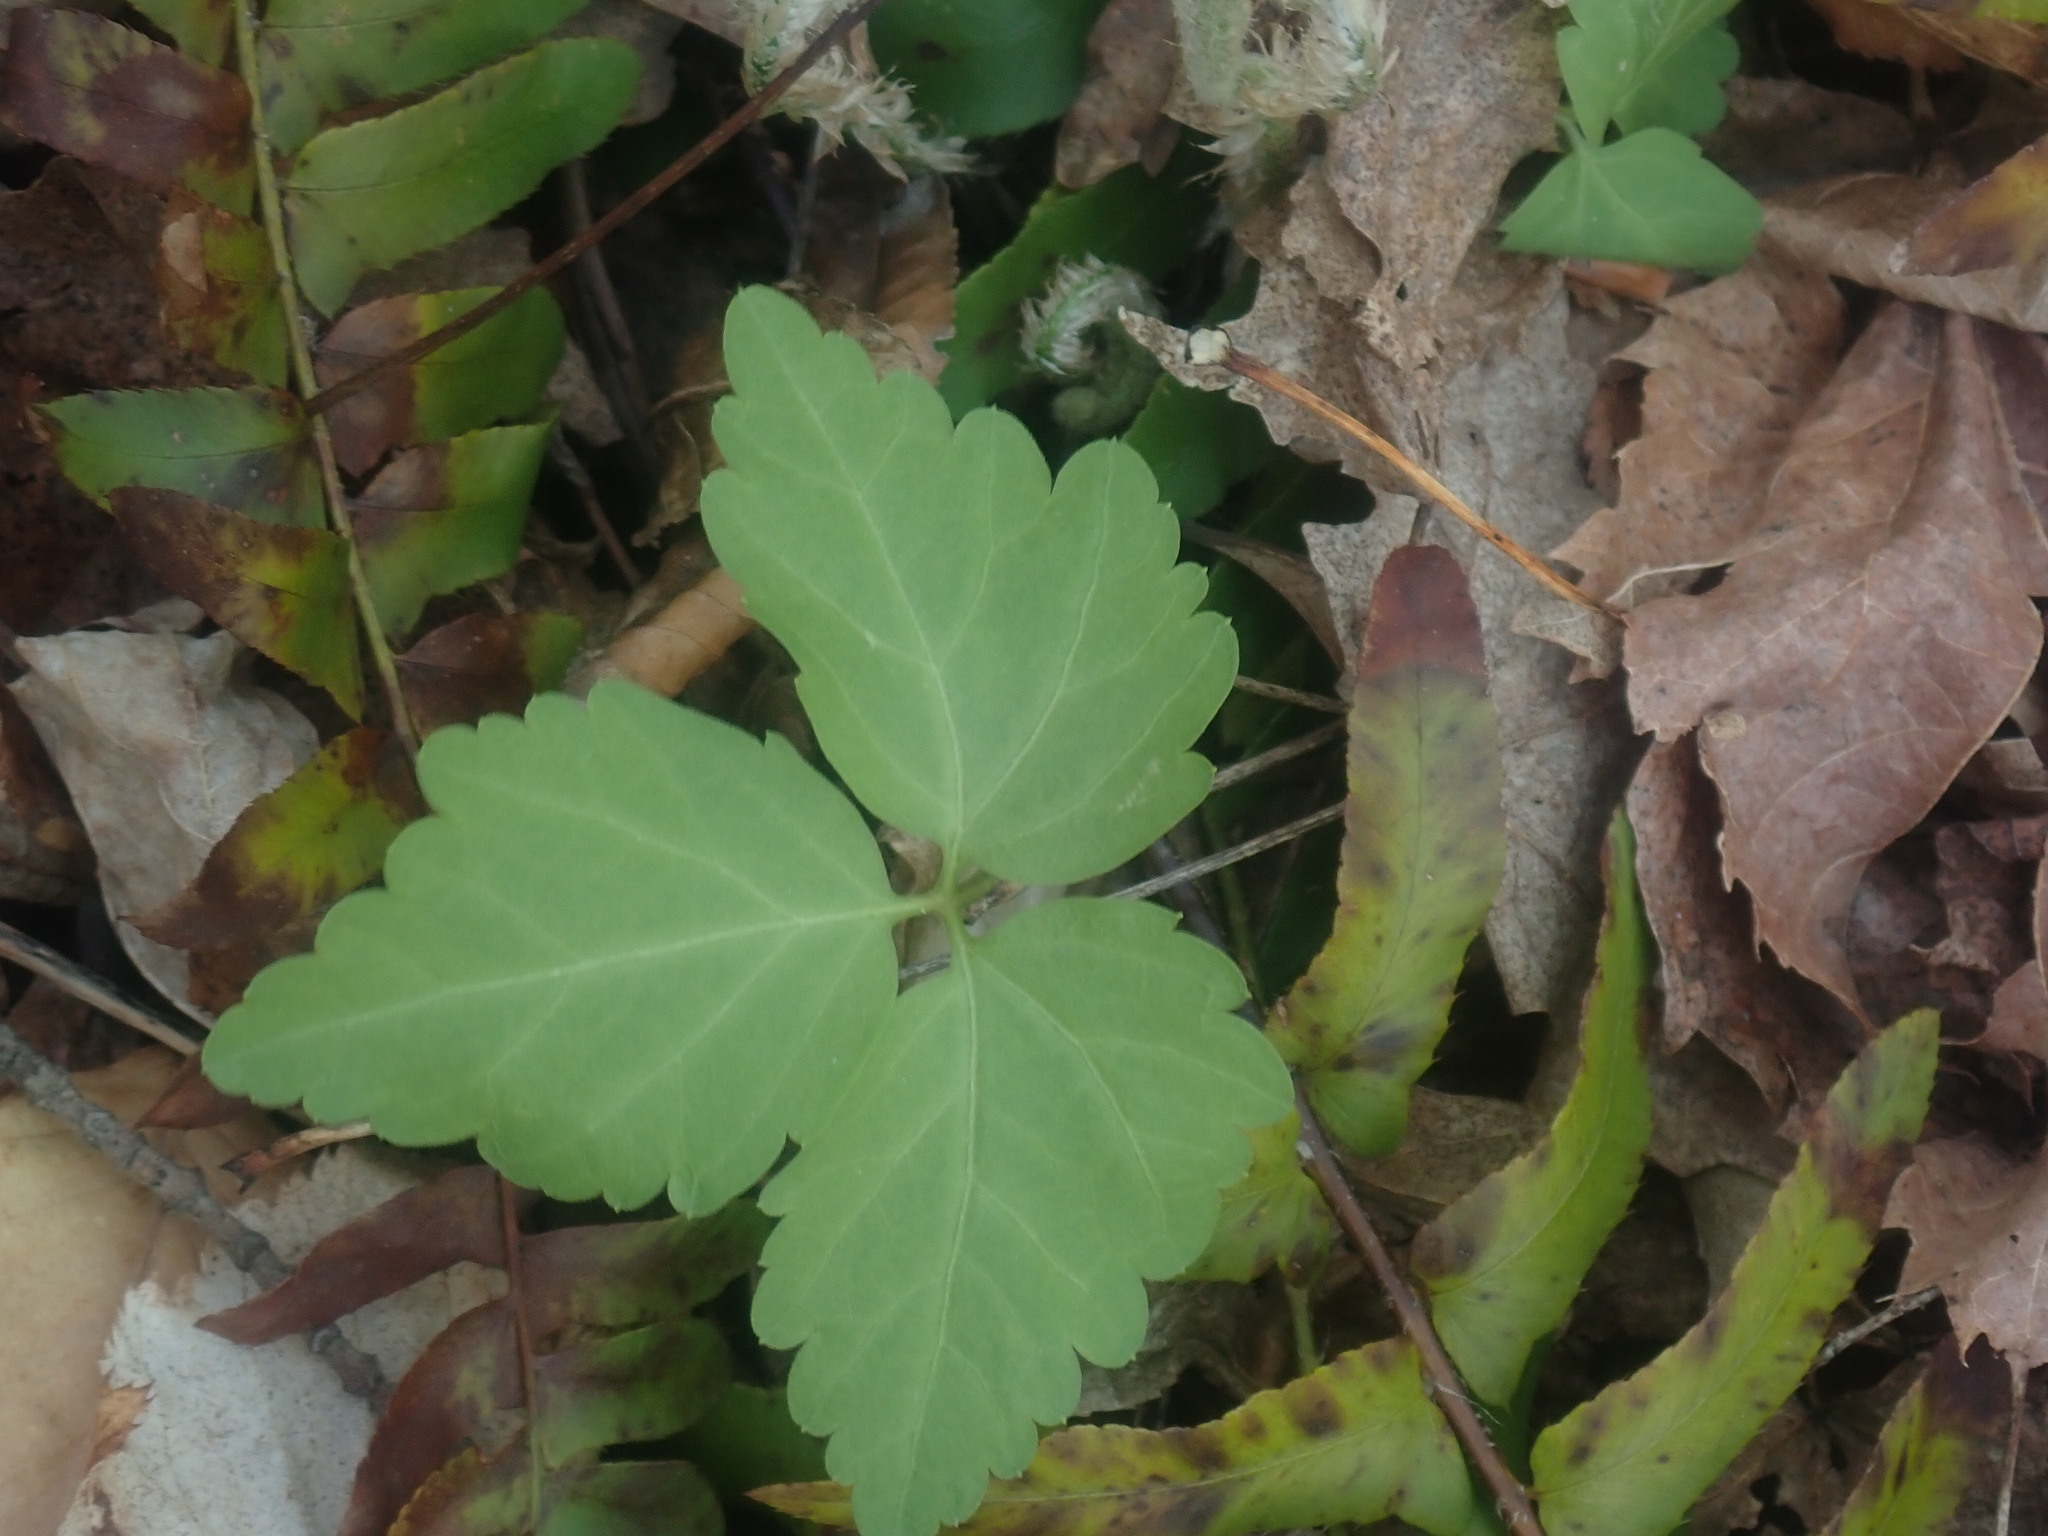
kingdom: Plantae
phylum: Tracheophyta
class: Magnoliopsida
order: Brassicales
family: Brassicaceae
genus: Cardamine
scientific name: Cardamine diphylla
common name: Broad-leaved toothwort
